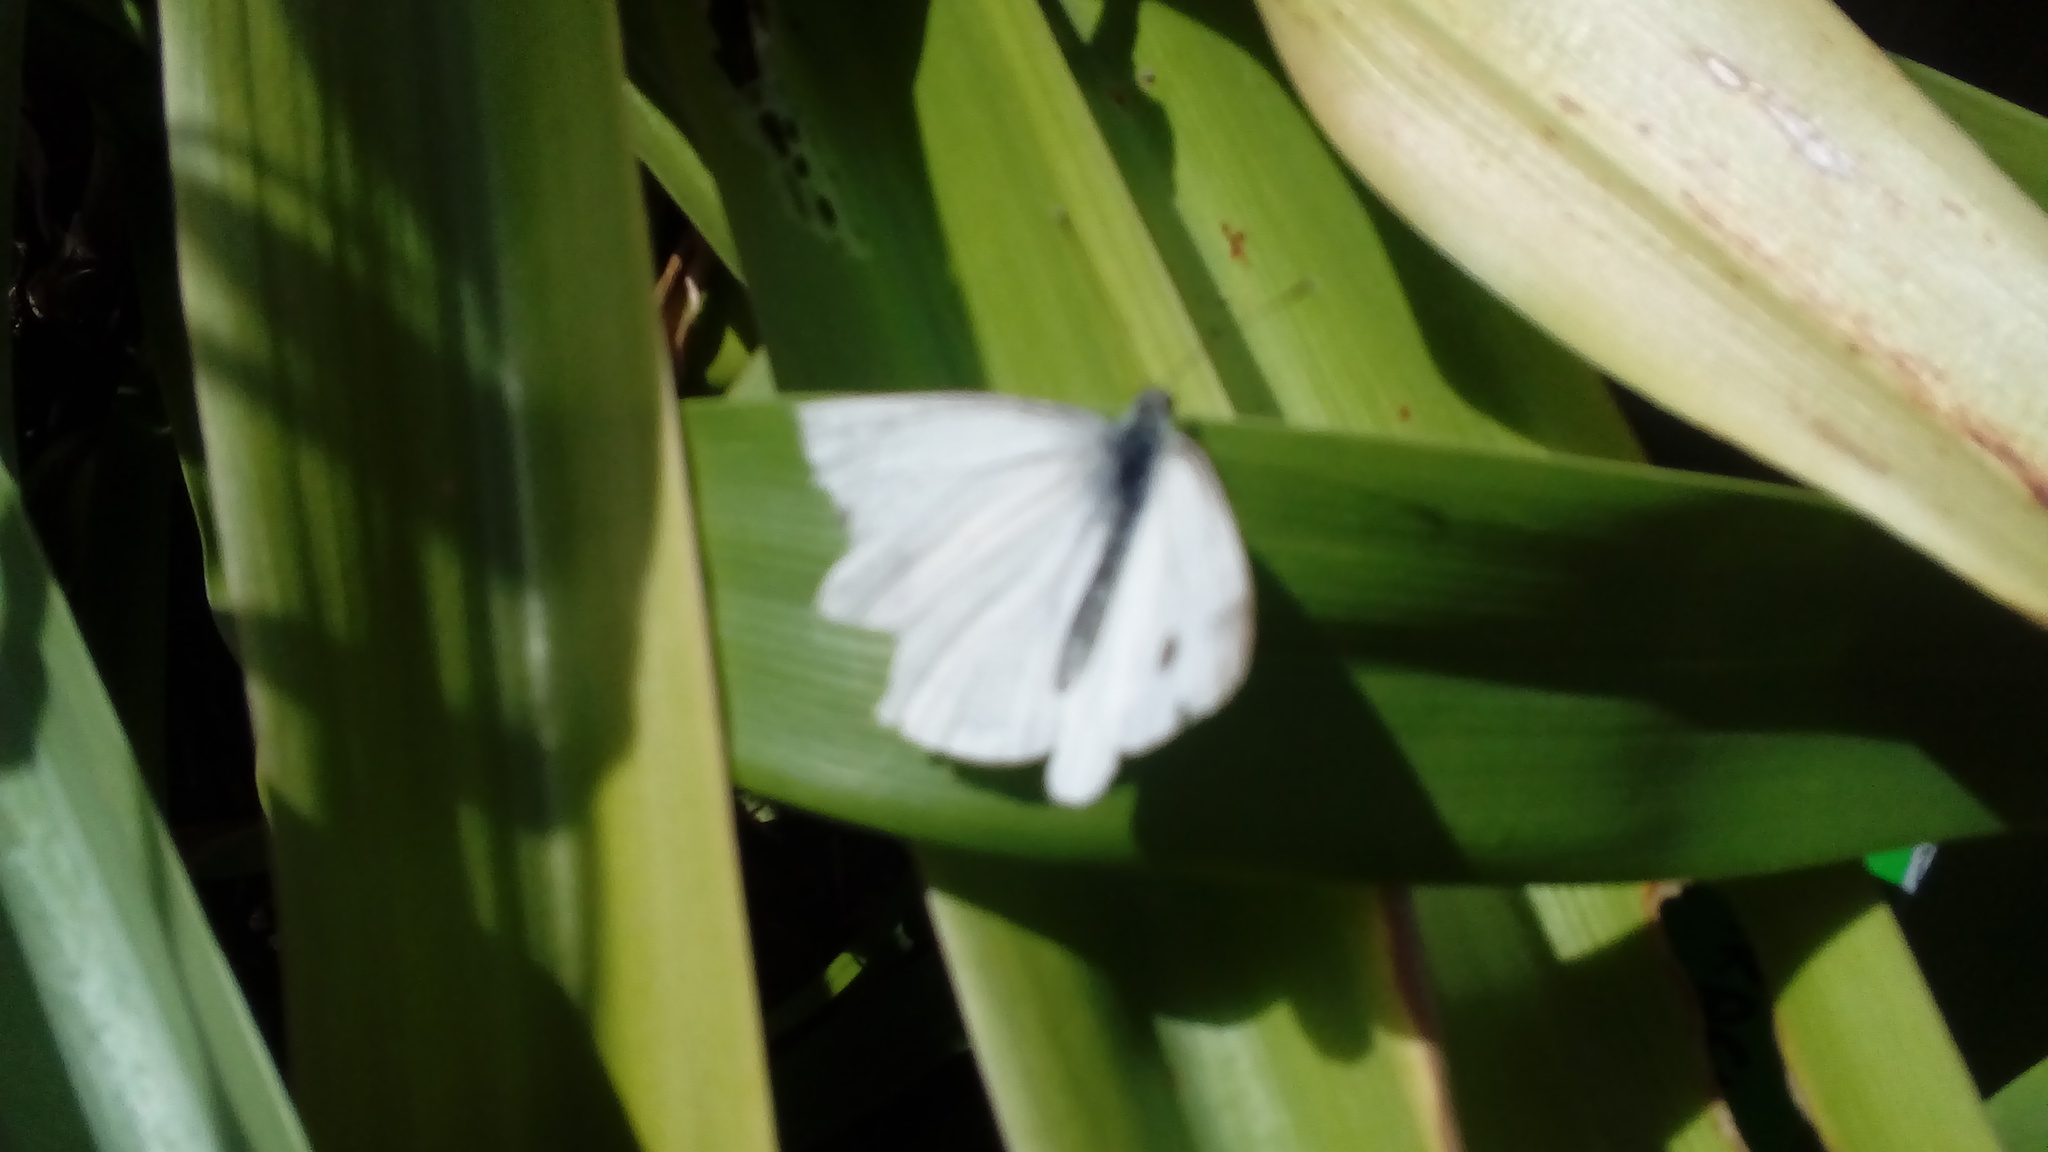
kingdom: Animalia
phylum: Arthropoda
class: Insecta
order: Lepidoptera
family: Pieridae
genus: Pieris
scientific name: Pieris
